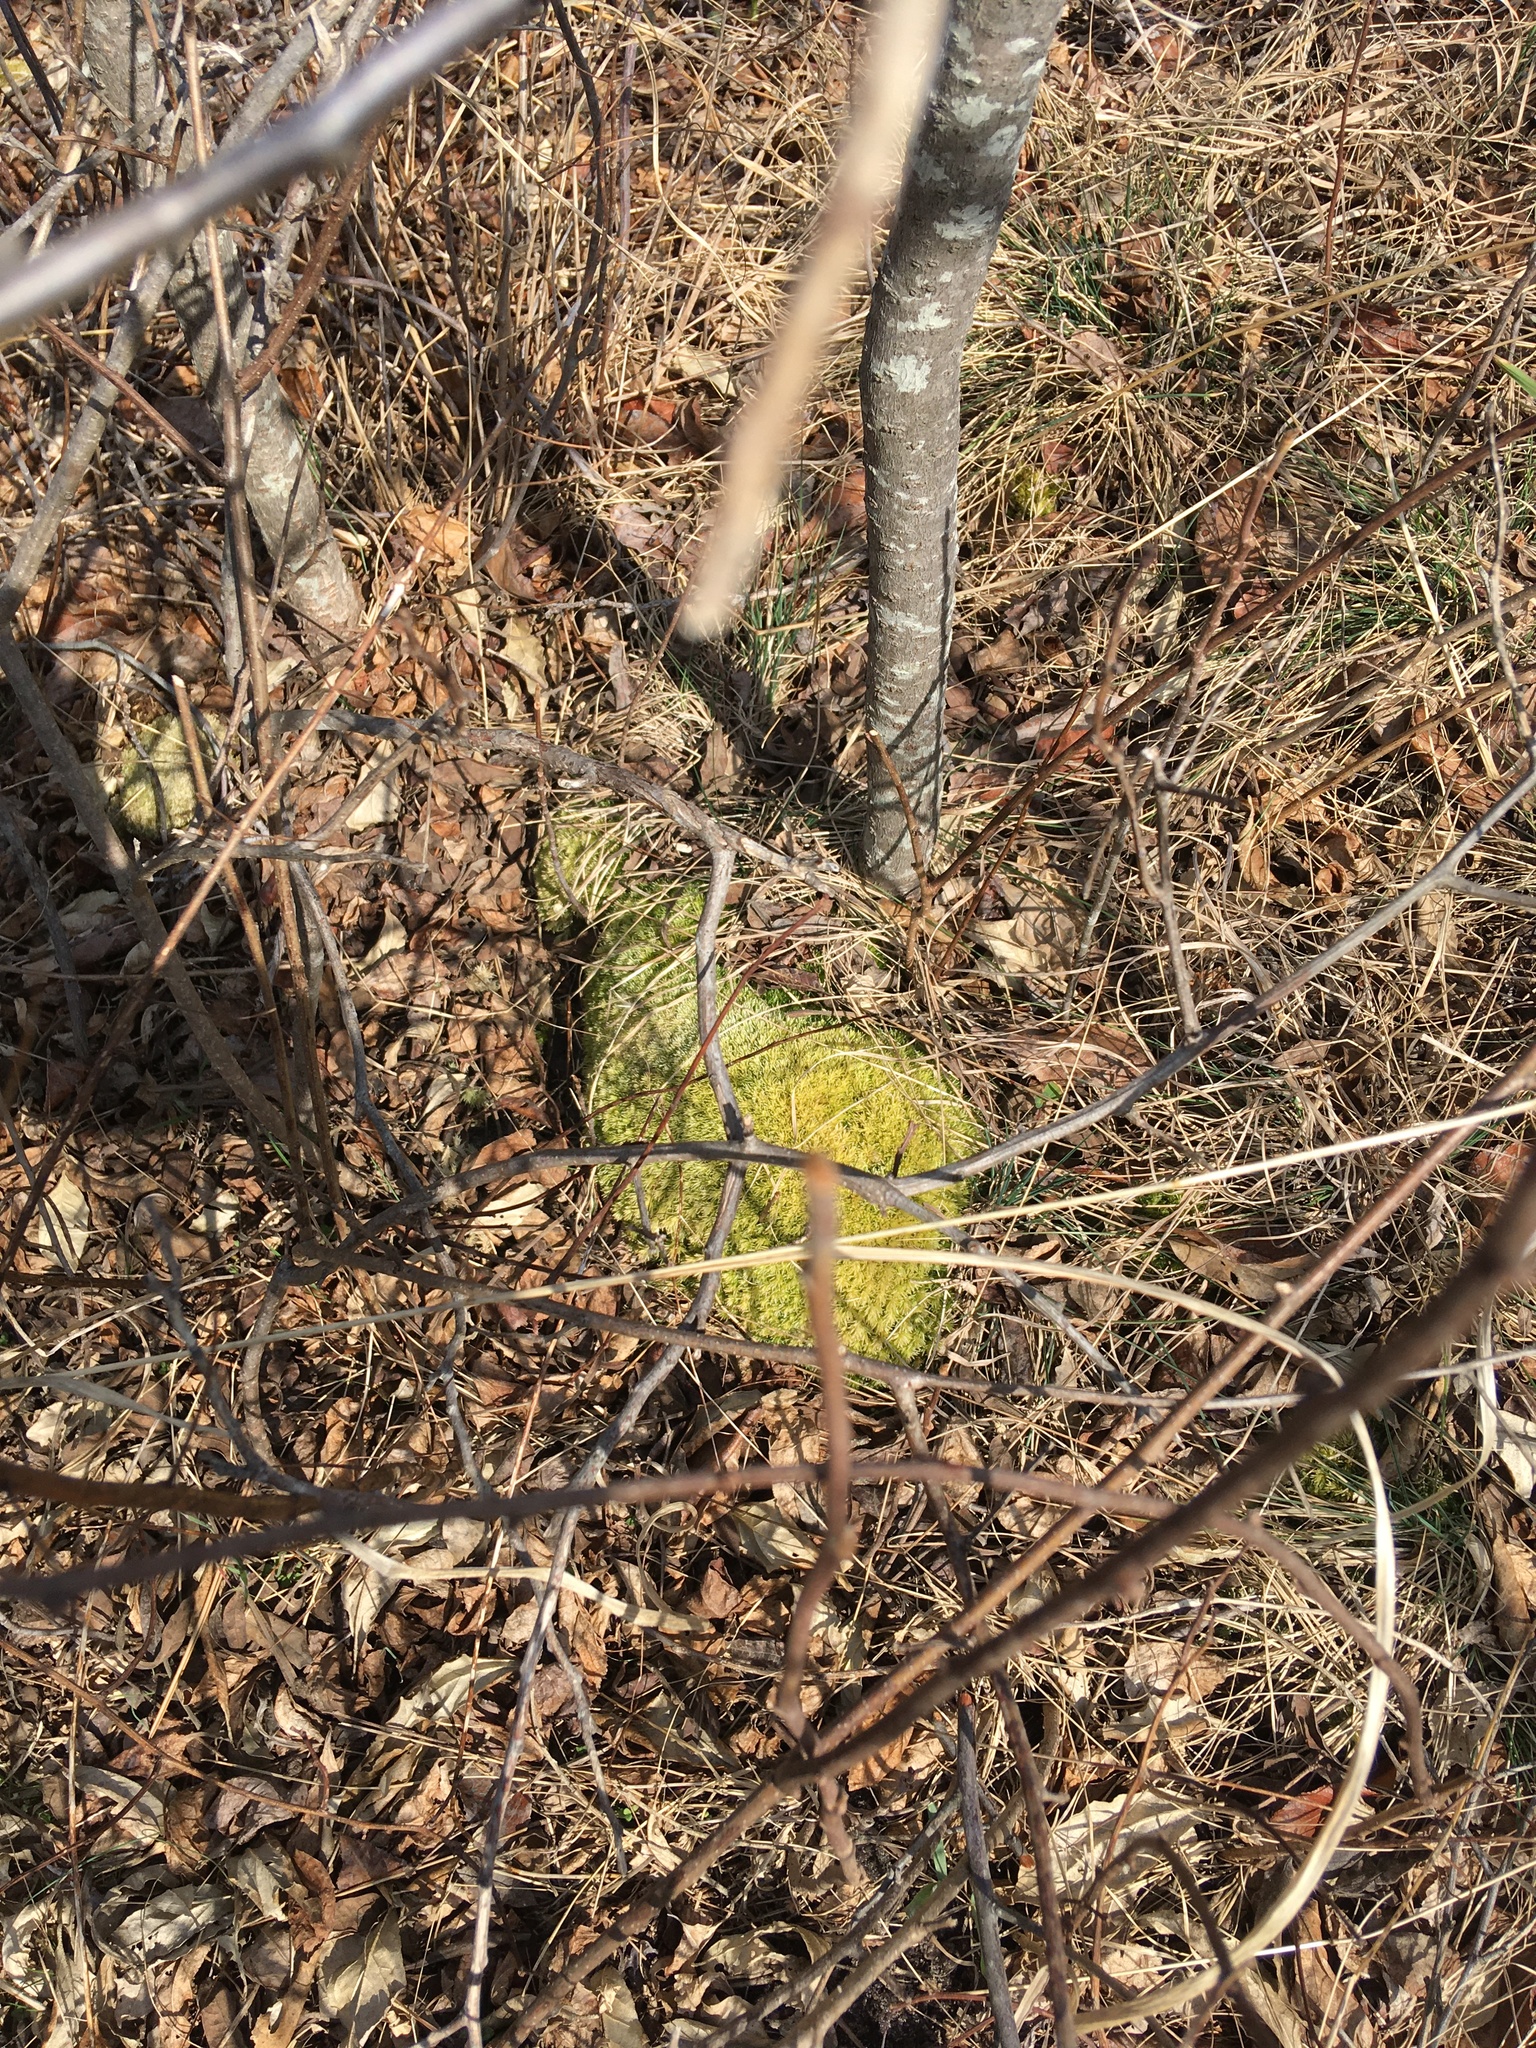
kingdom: Plantae
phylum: Bryophyta
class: Bryopsida
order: Dicranales
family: Leucobryaceae
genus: Leucobryum
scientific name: Leucobryum glaucum
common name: Large white-moss
